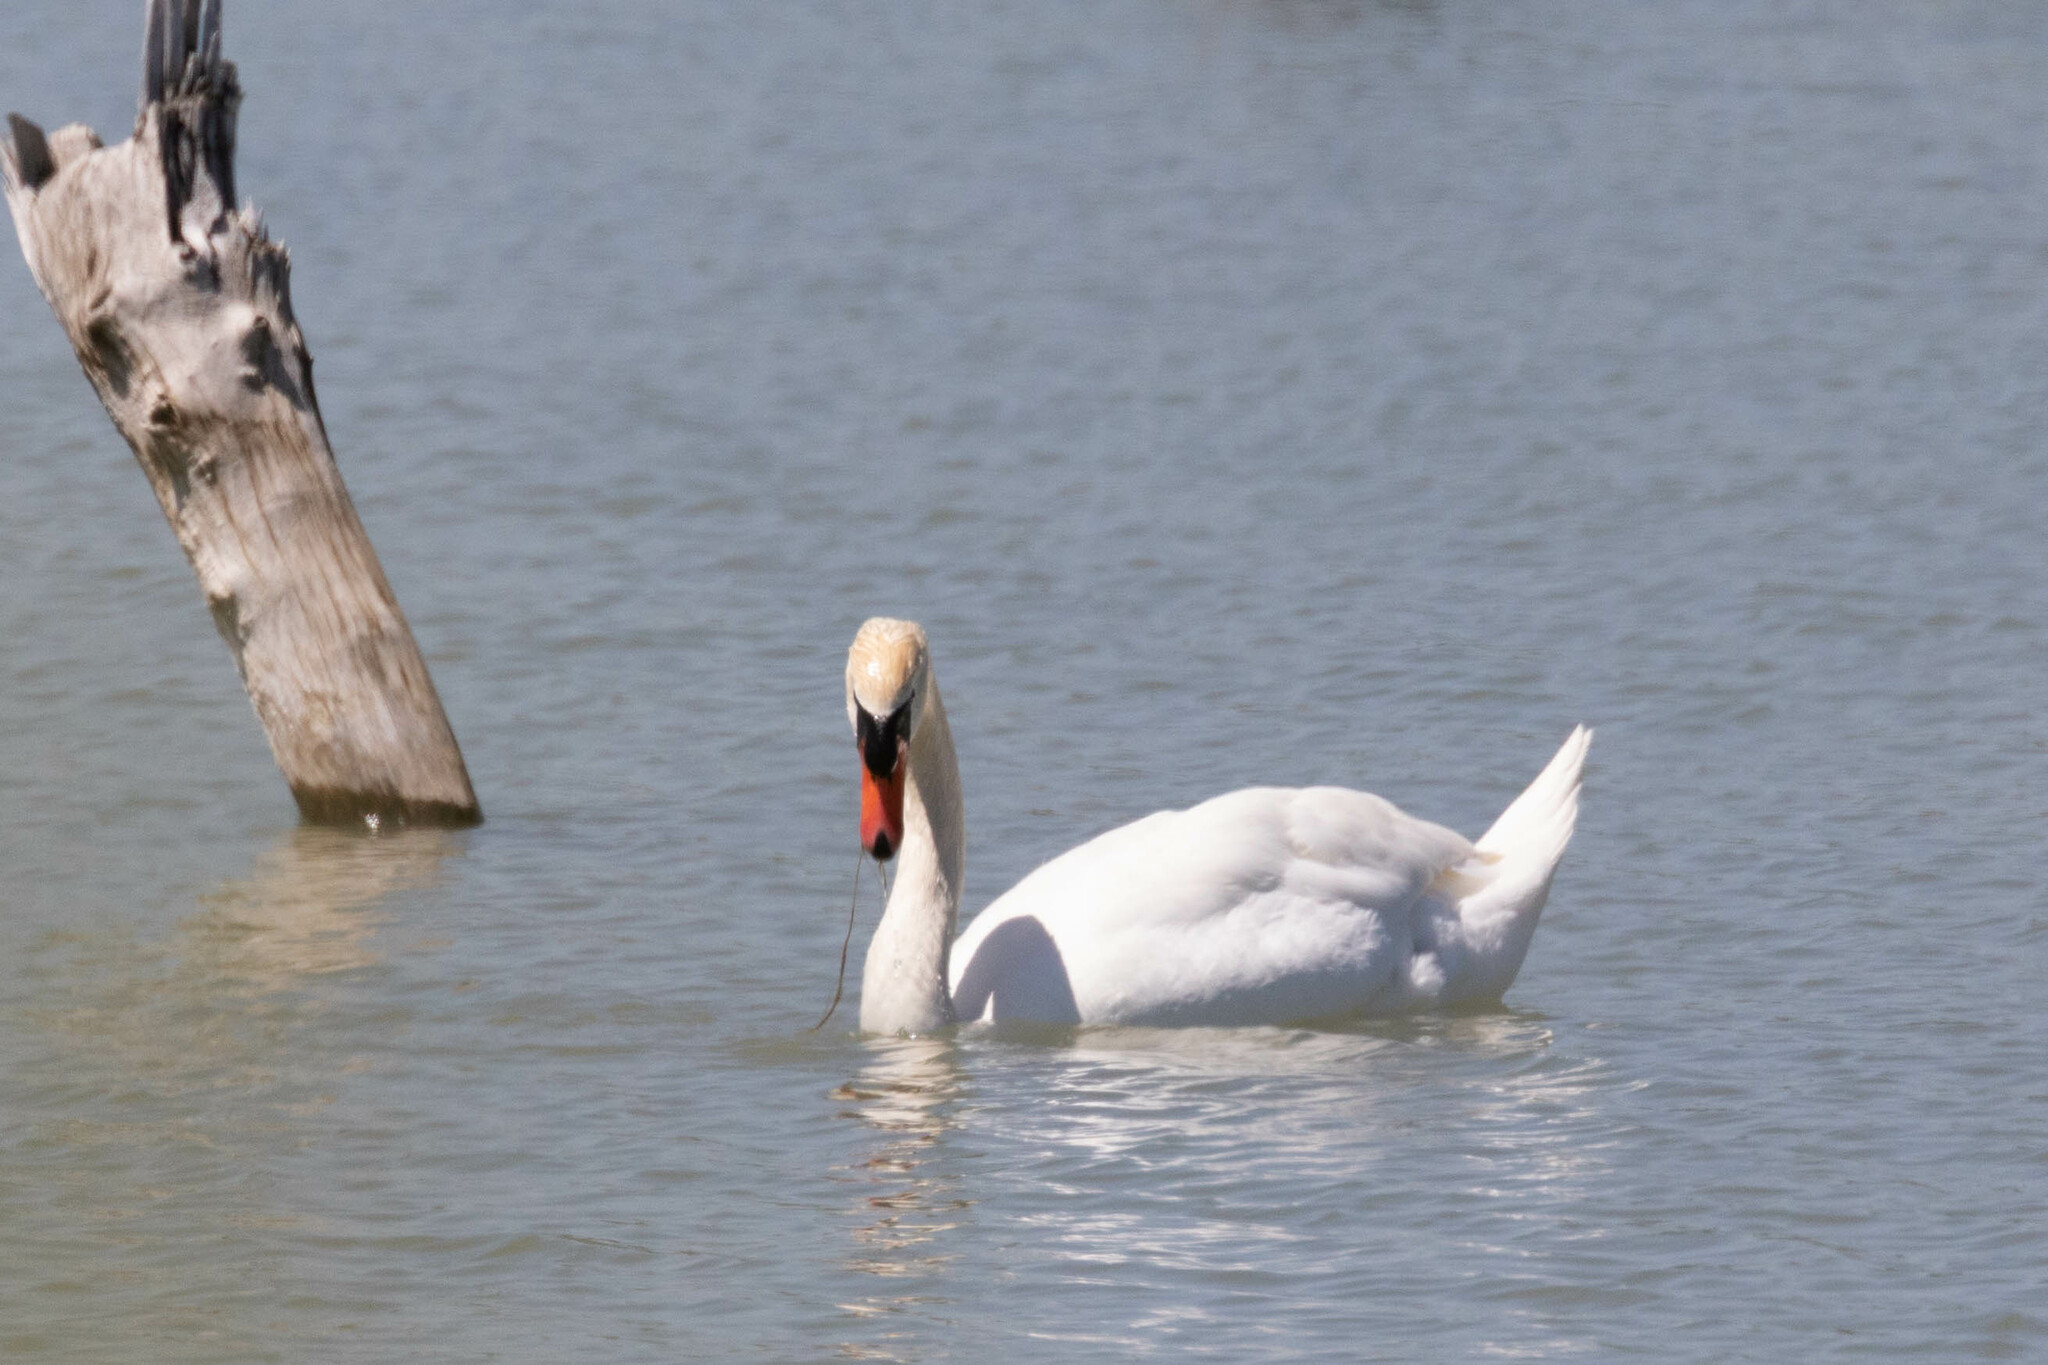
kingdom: Animalia
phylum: Chordata
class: Aves
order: Anseriformes
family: Anatidae
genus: Cygnus
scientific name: Cygnus olor
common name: Mute swan
